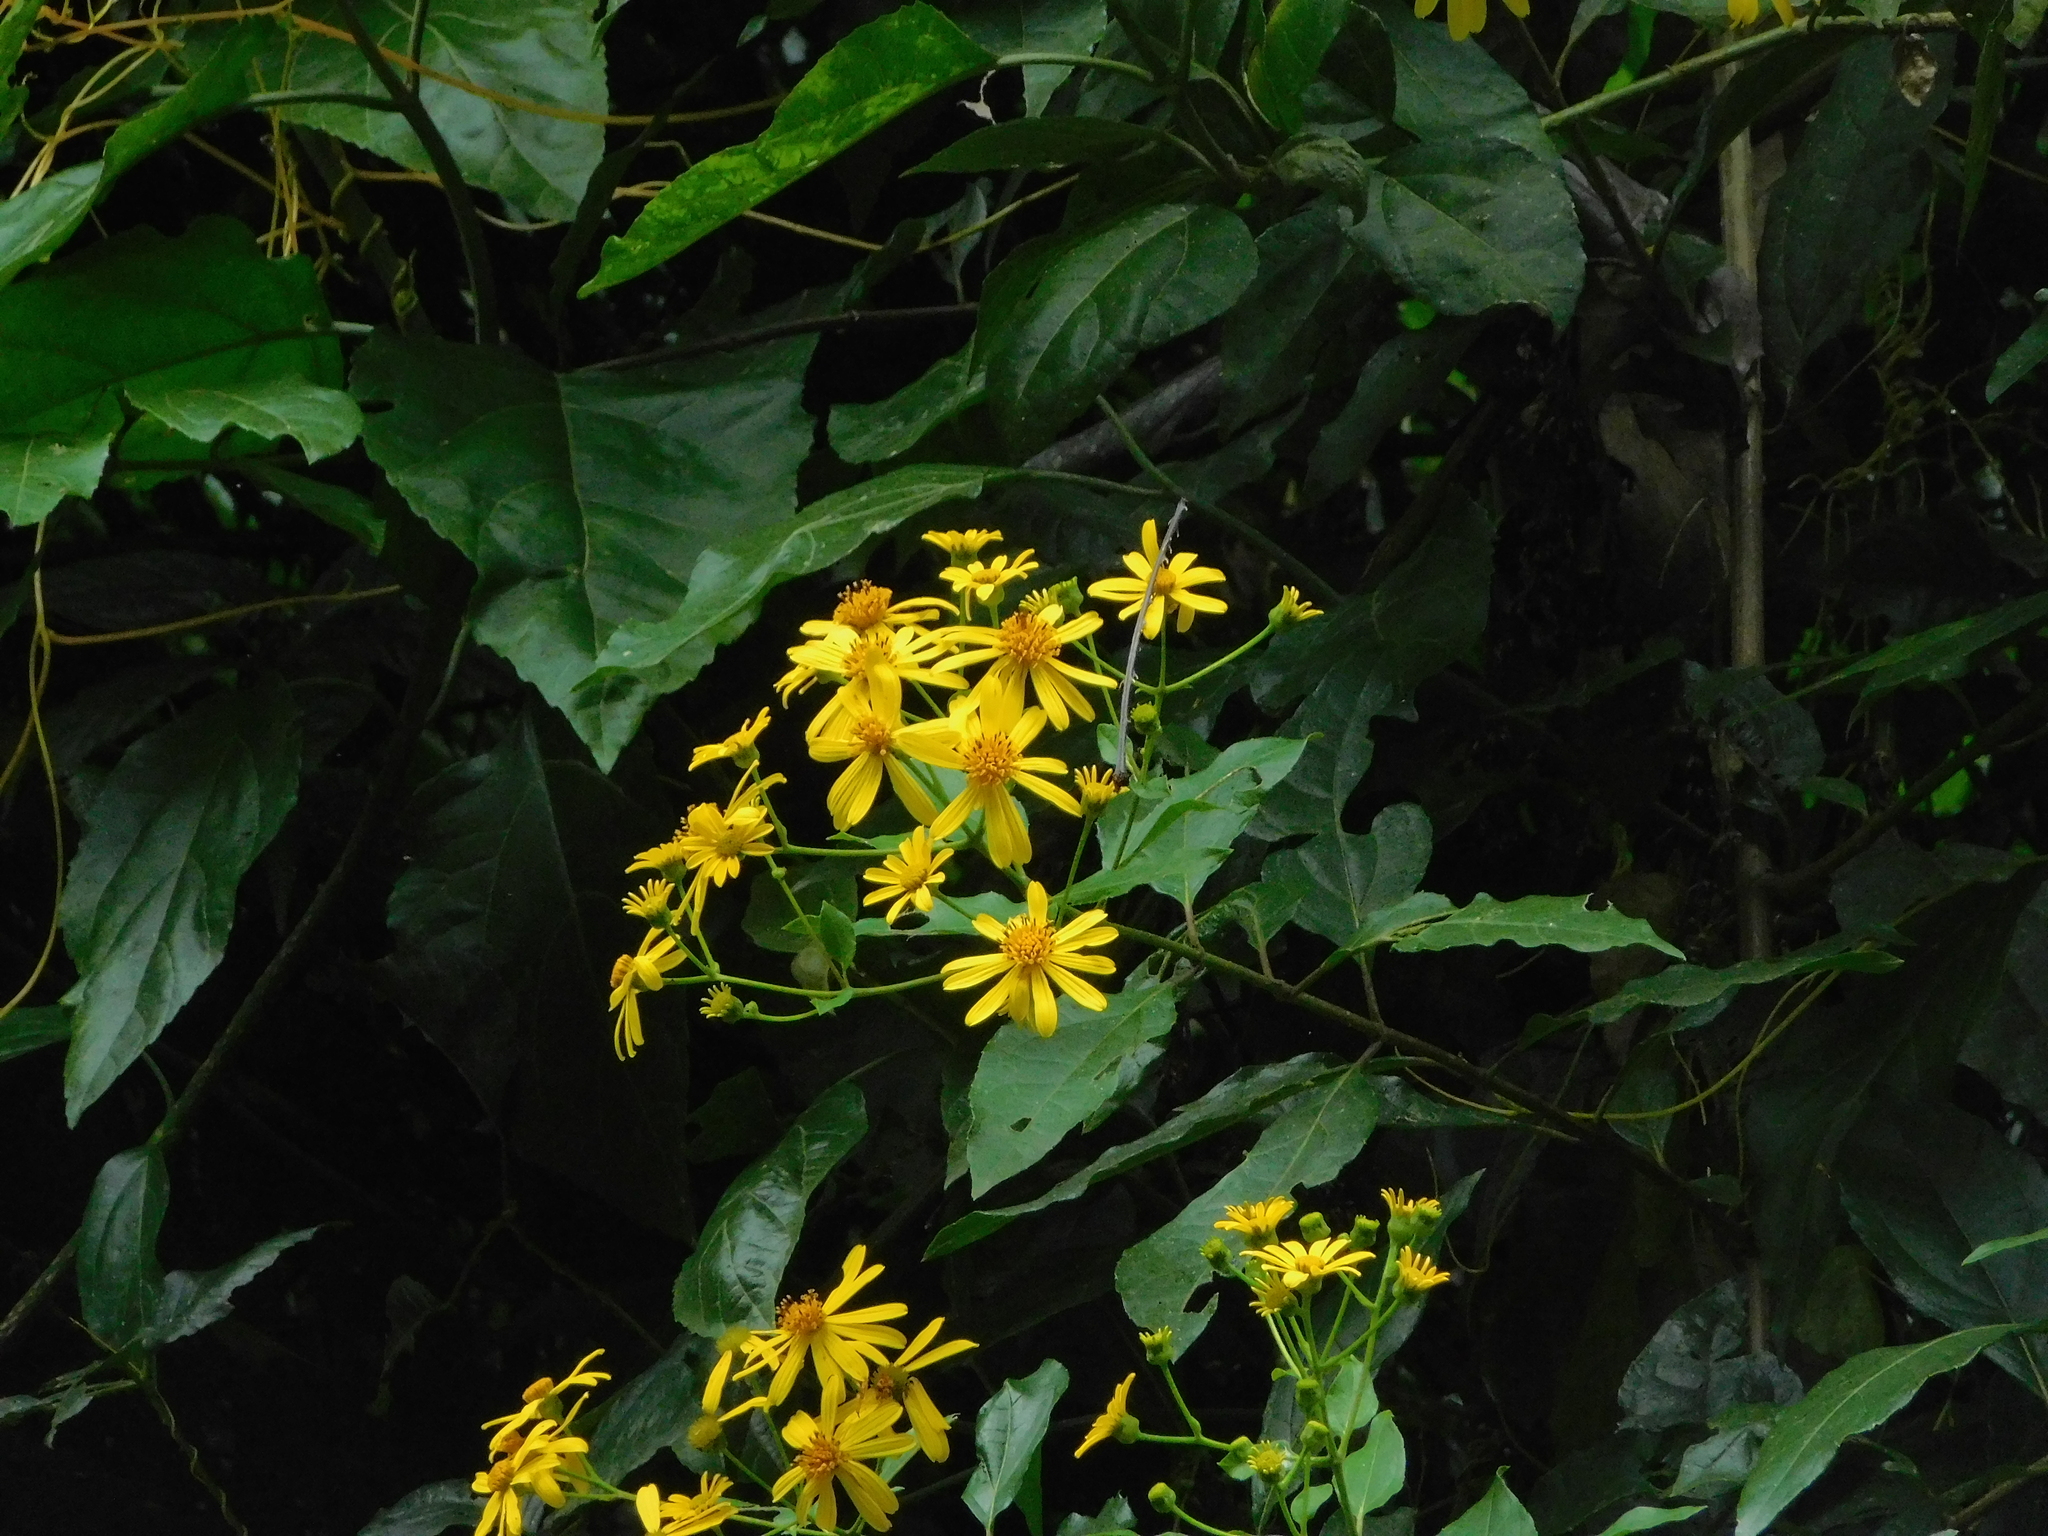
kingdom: Plantae
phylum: Tracheophyta
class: Magnoliopsida
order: Asterales
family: Asteraceae
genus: Perymeniopsis
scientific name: Perymeniopsis ovalifolia
